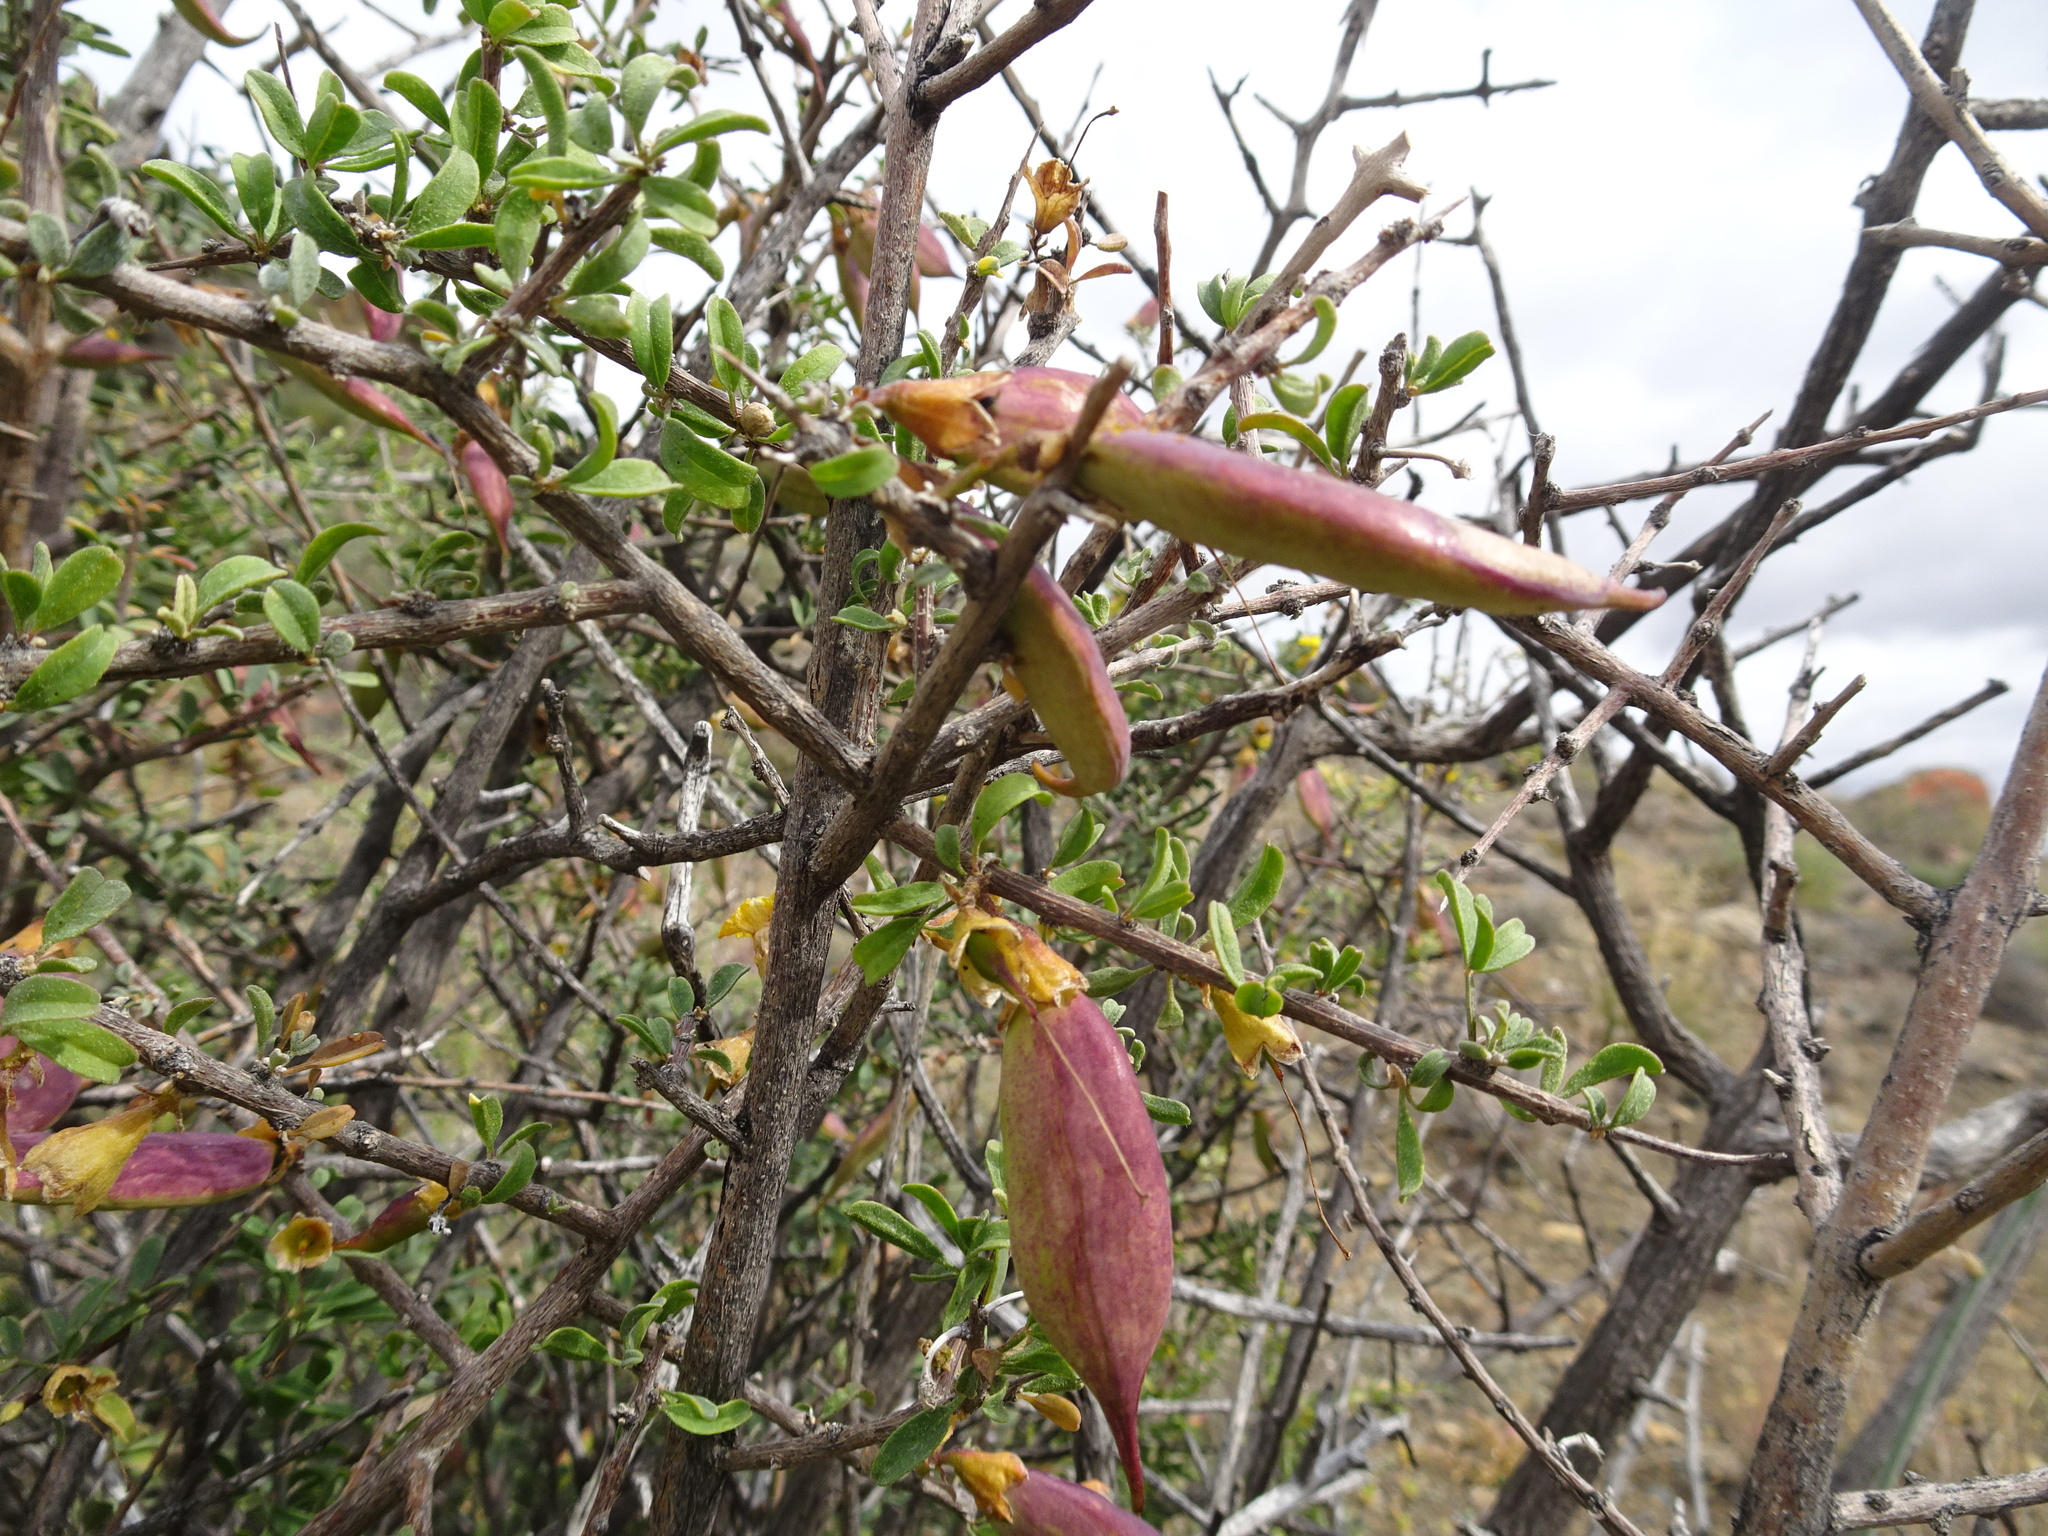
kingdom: Plantae
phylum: Tracheophyta
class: Magnoliopsida
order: Lamiales
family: Bignoniaceae
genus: Rhigozum
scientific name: Rhigozum obovatum
